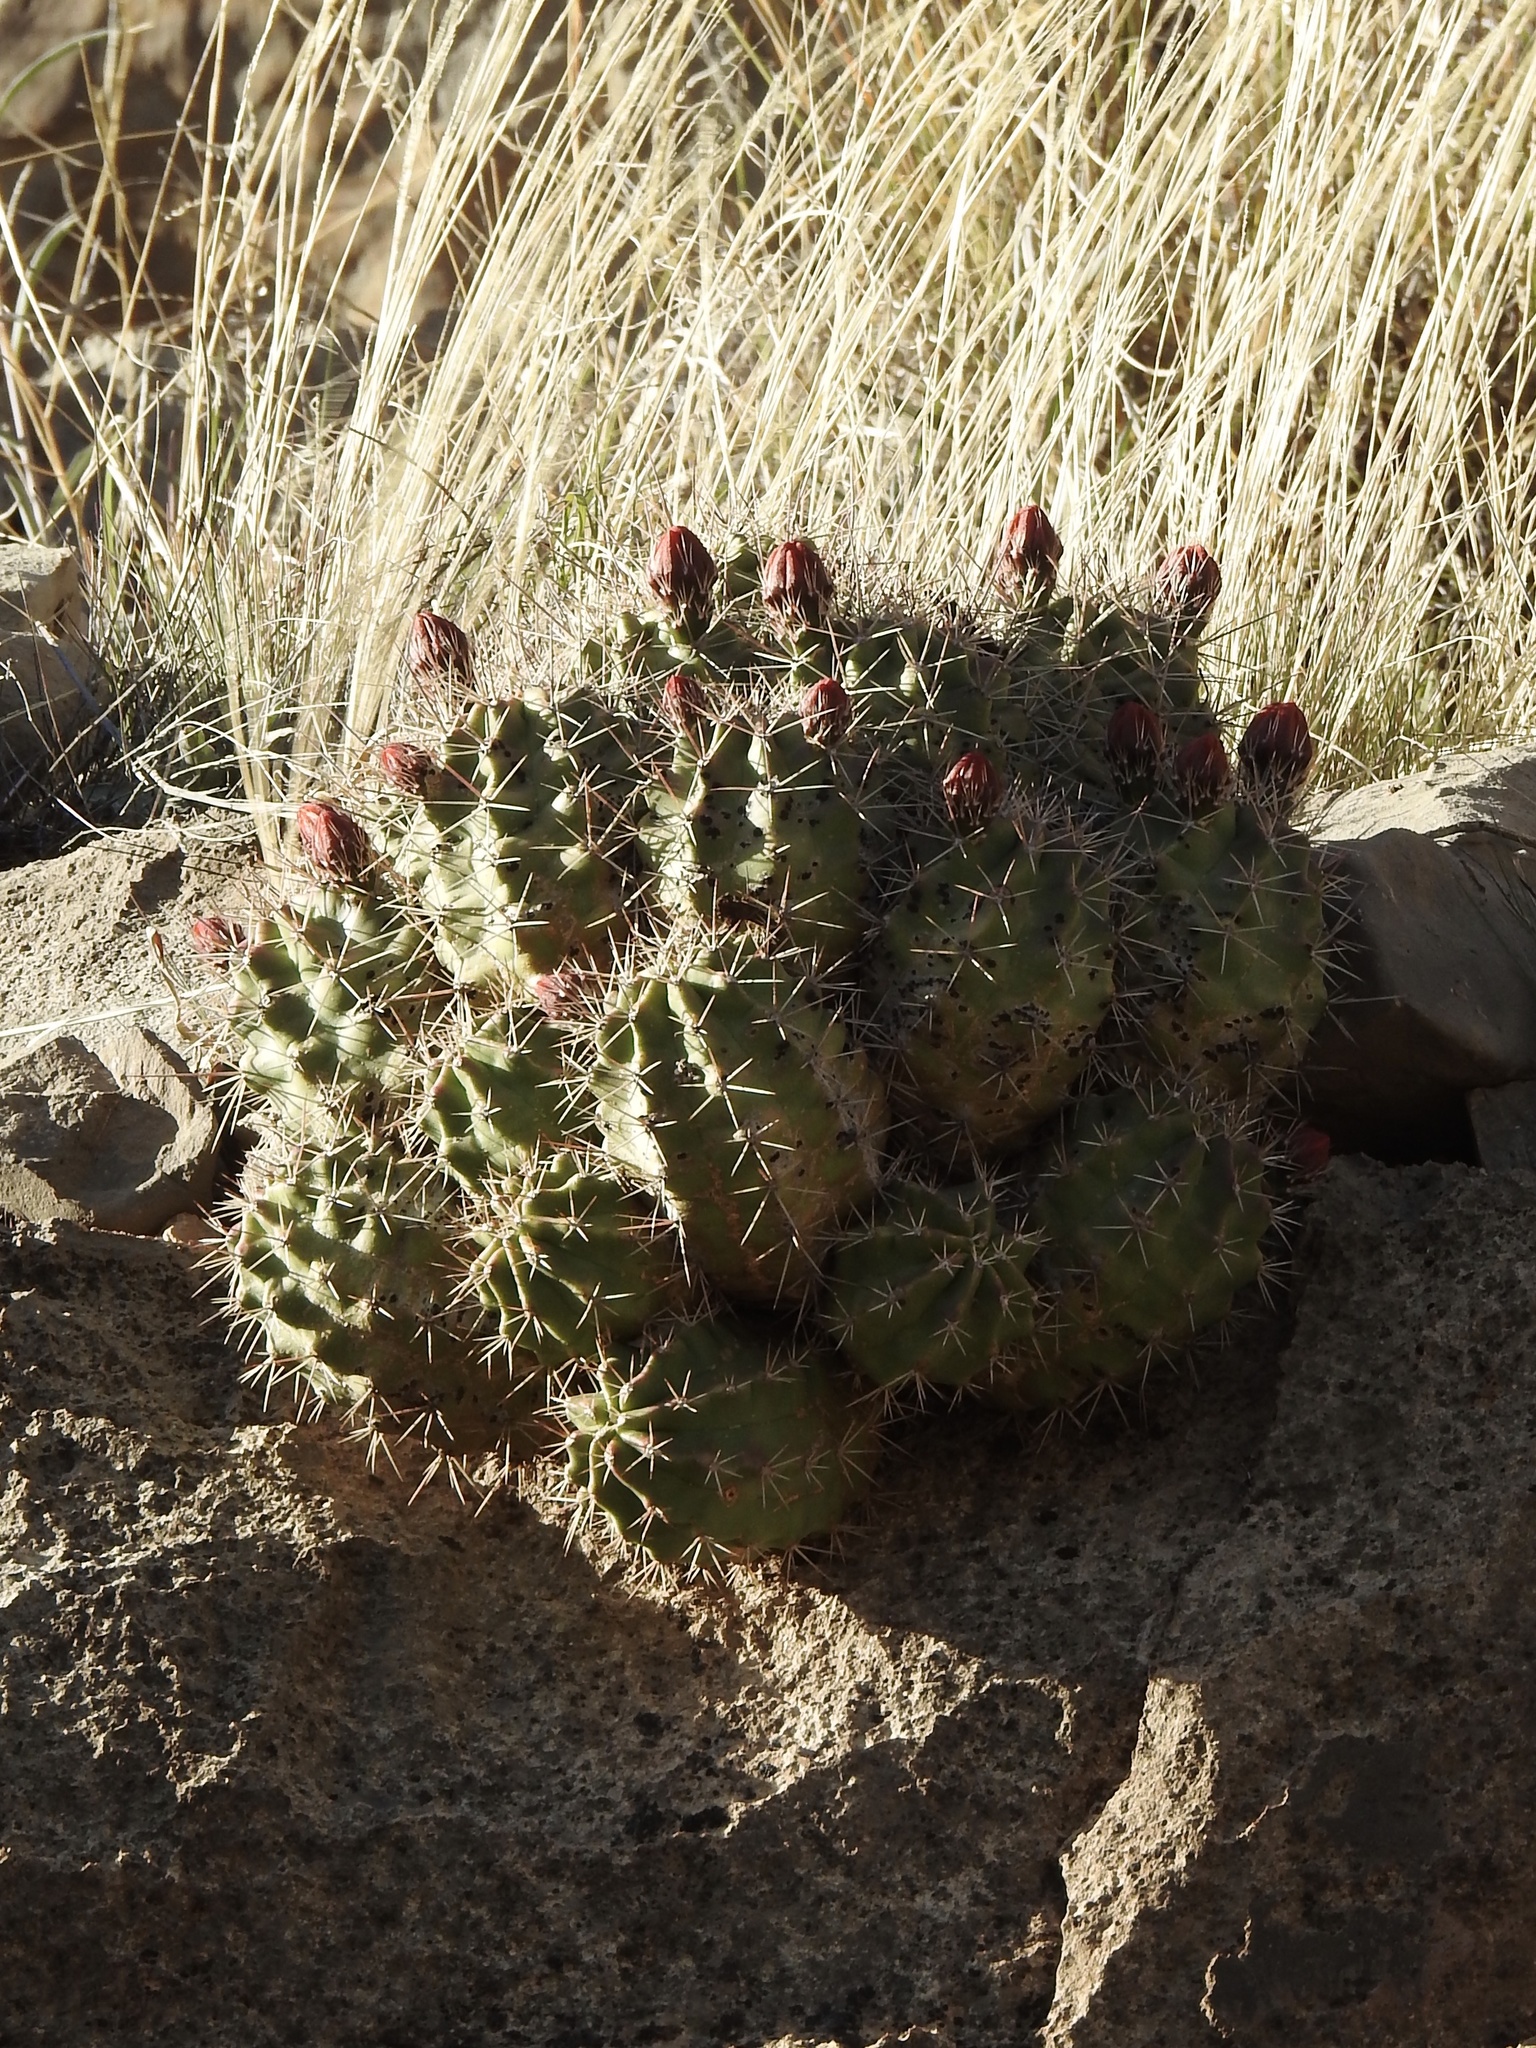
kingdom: Plantae
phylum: Tracheophyta
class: Magnoliopsida
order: Caryophyllales
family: Cactaceae
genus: Echinocereus
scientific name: Echinocereus coccineus
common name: Scarlet hedgehog cactus
